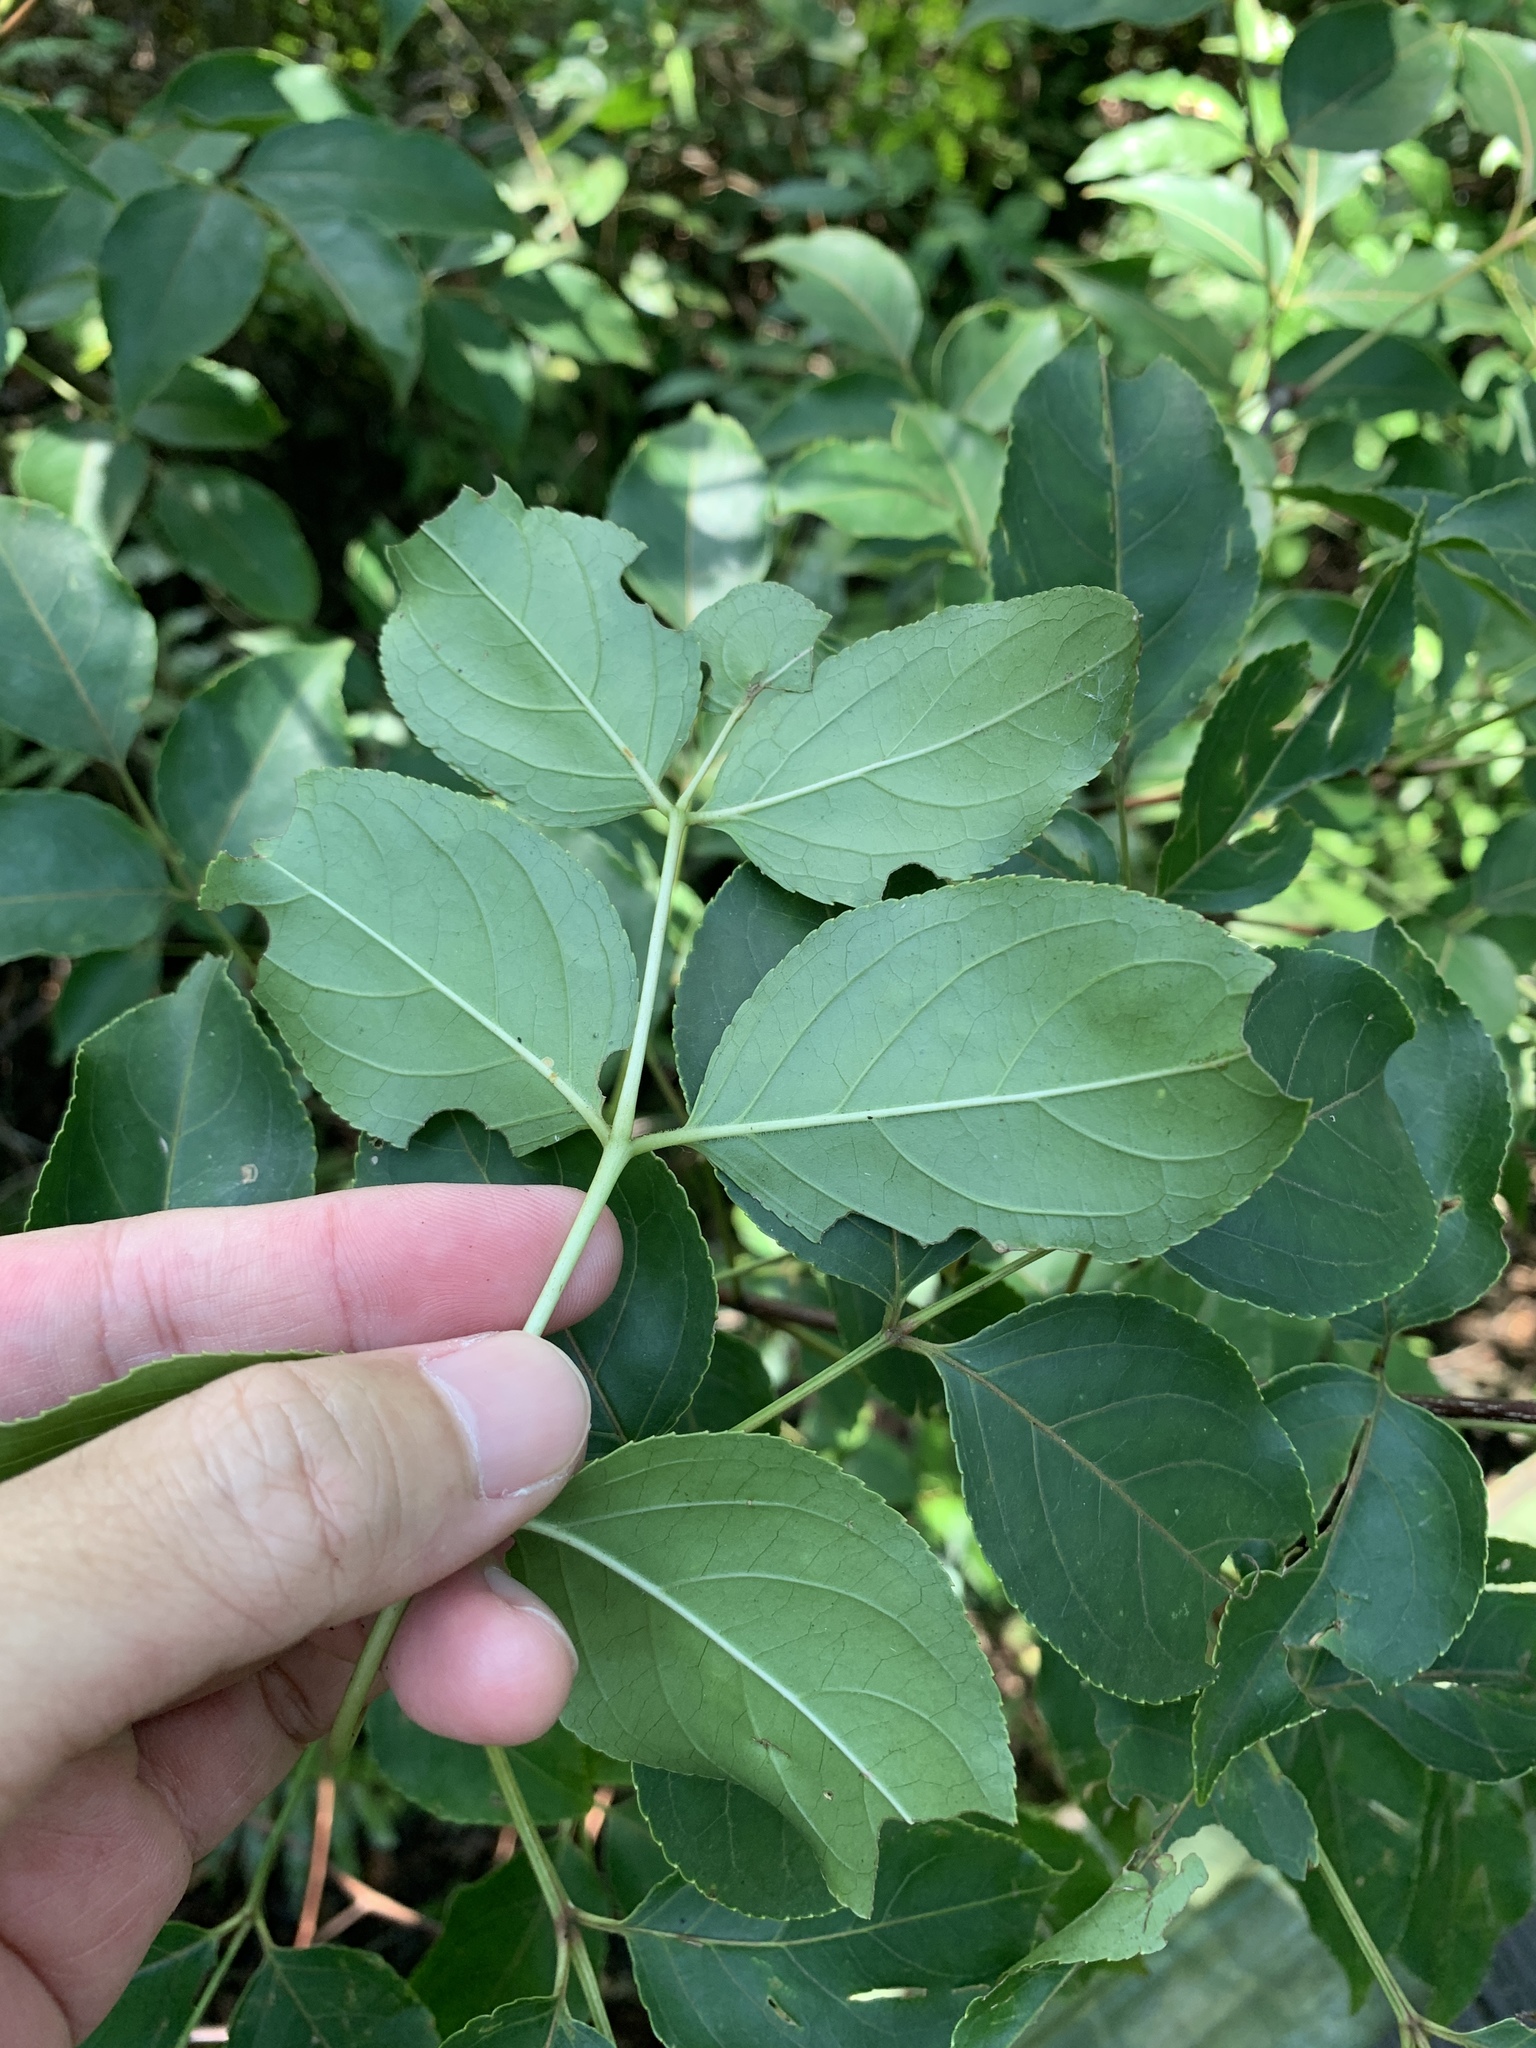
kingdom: Plantae
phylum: Tracheophyta
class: Magnoliopsida
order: Crossosomatales
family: Staphyleaceae
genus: Staphylea
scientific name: Staphylea japonica
